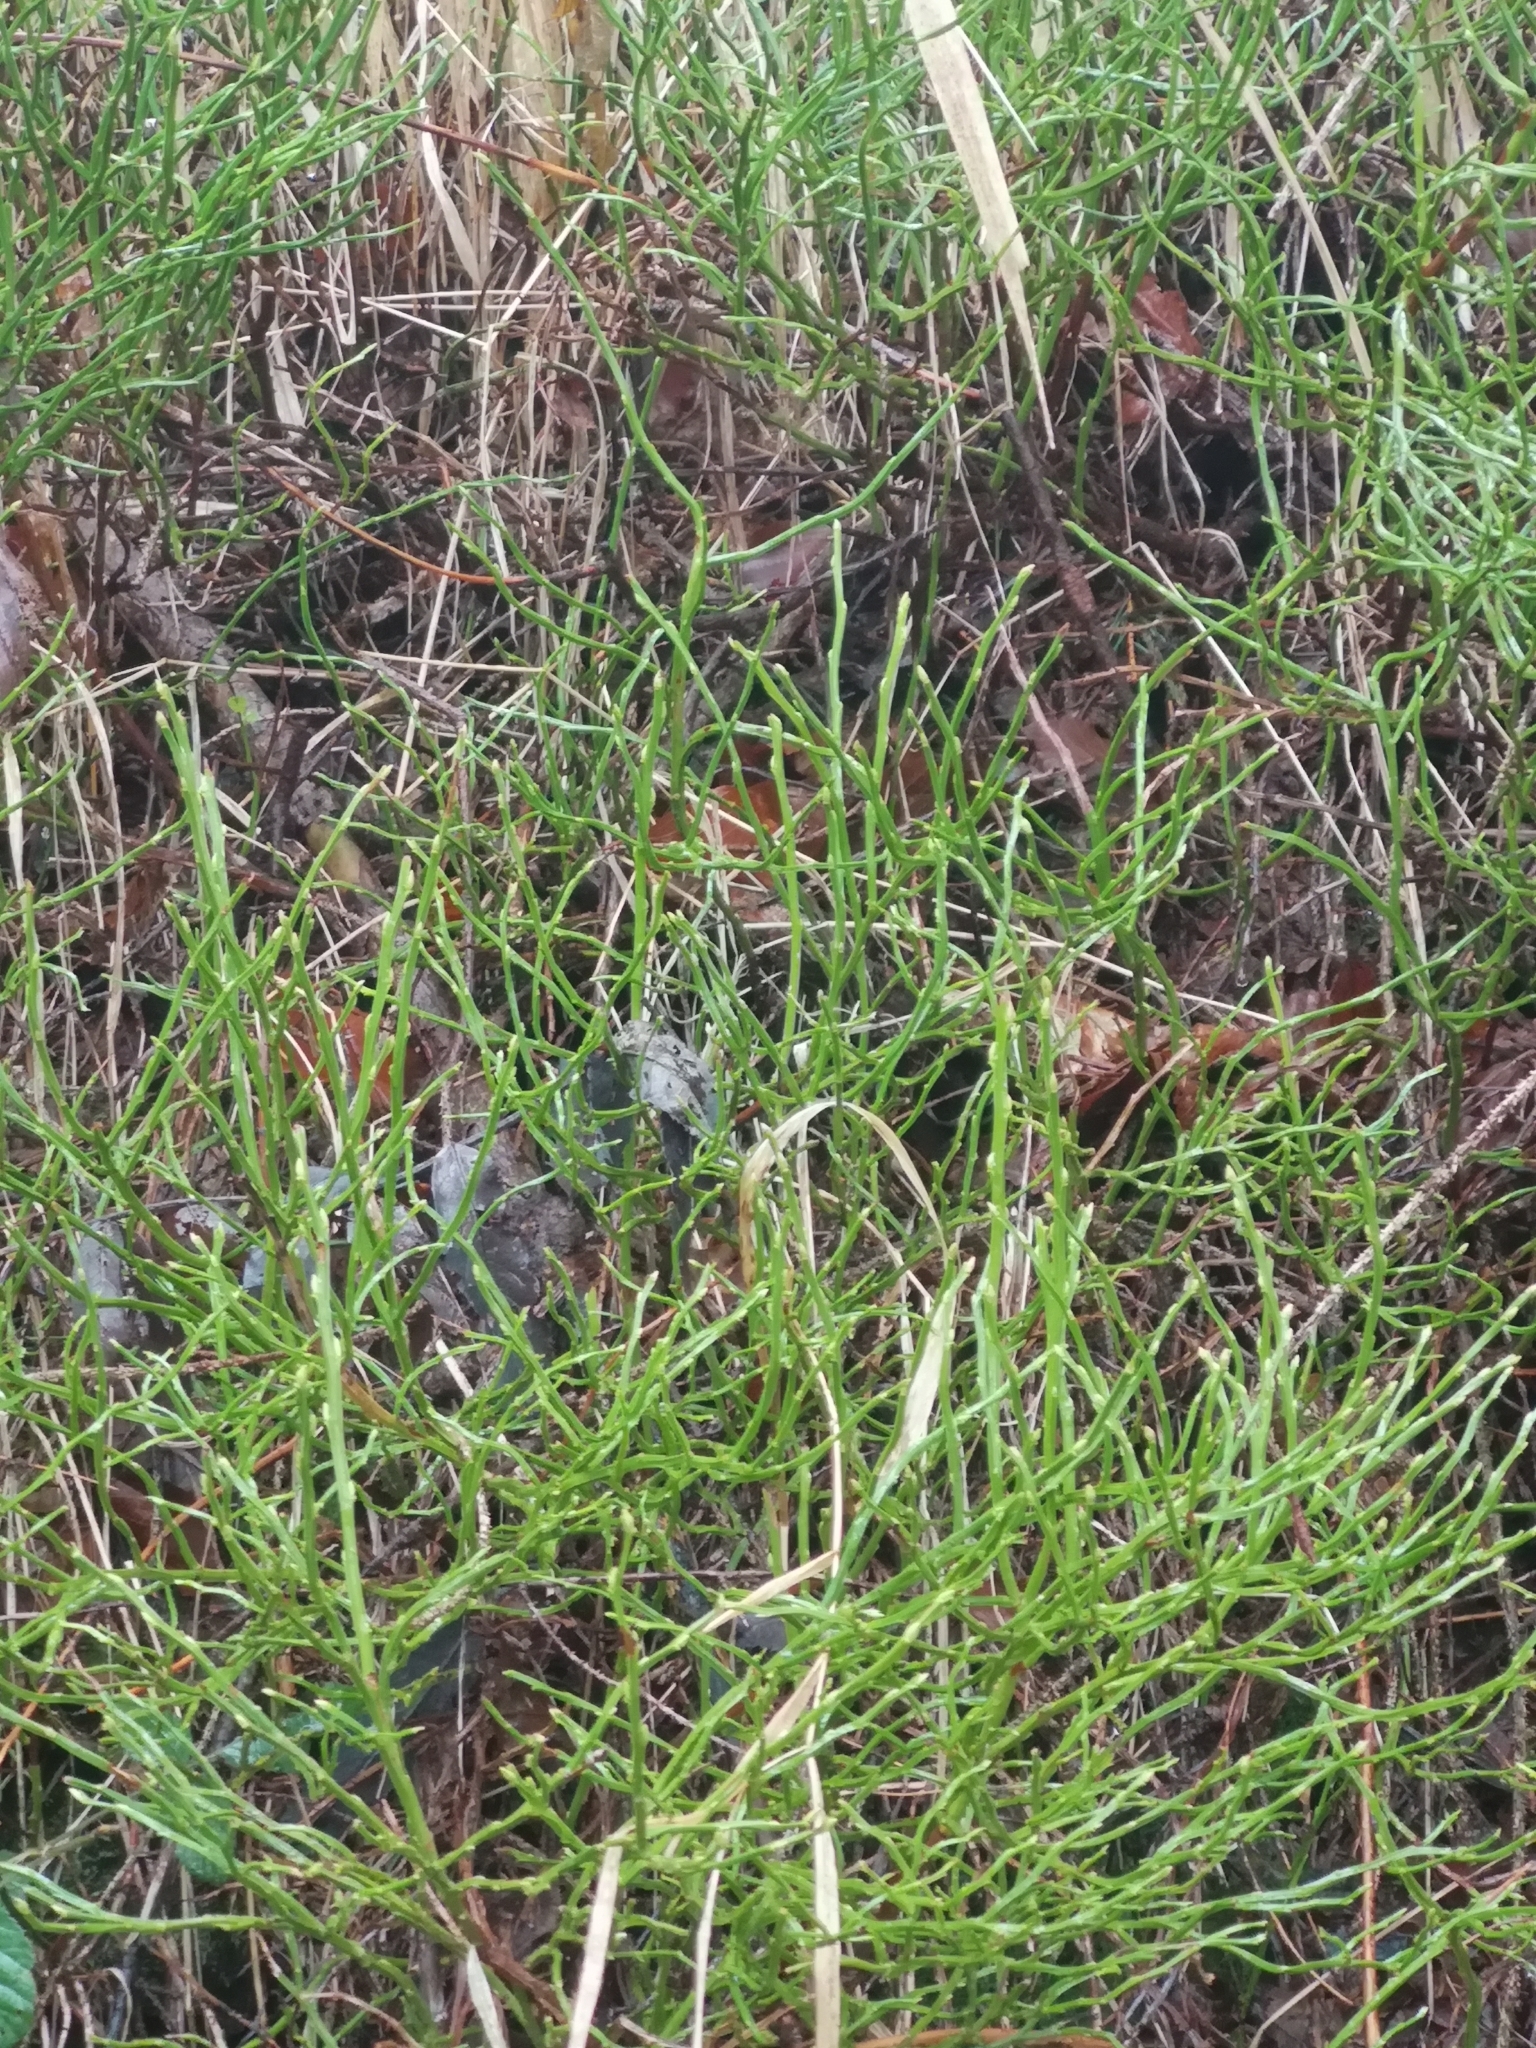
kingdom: Plantae
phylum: Tracheophyta
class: Magnoliopsida
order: Ericales
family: Ericaceae
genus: Vaccinium
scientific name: Vaccinium myrtillus
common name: Bilberry
